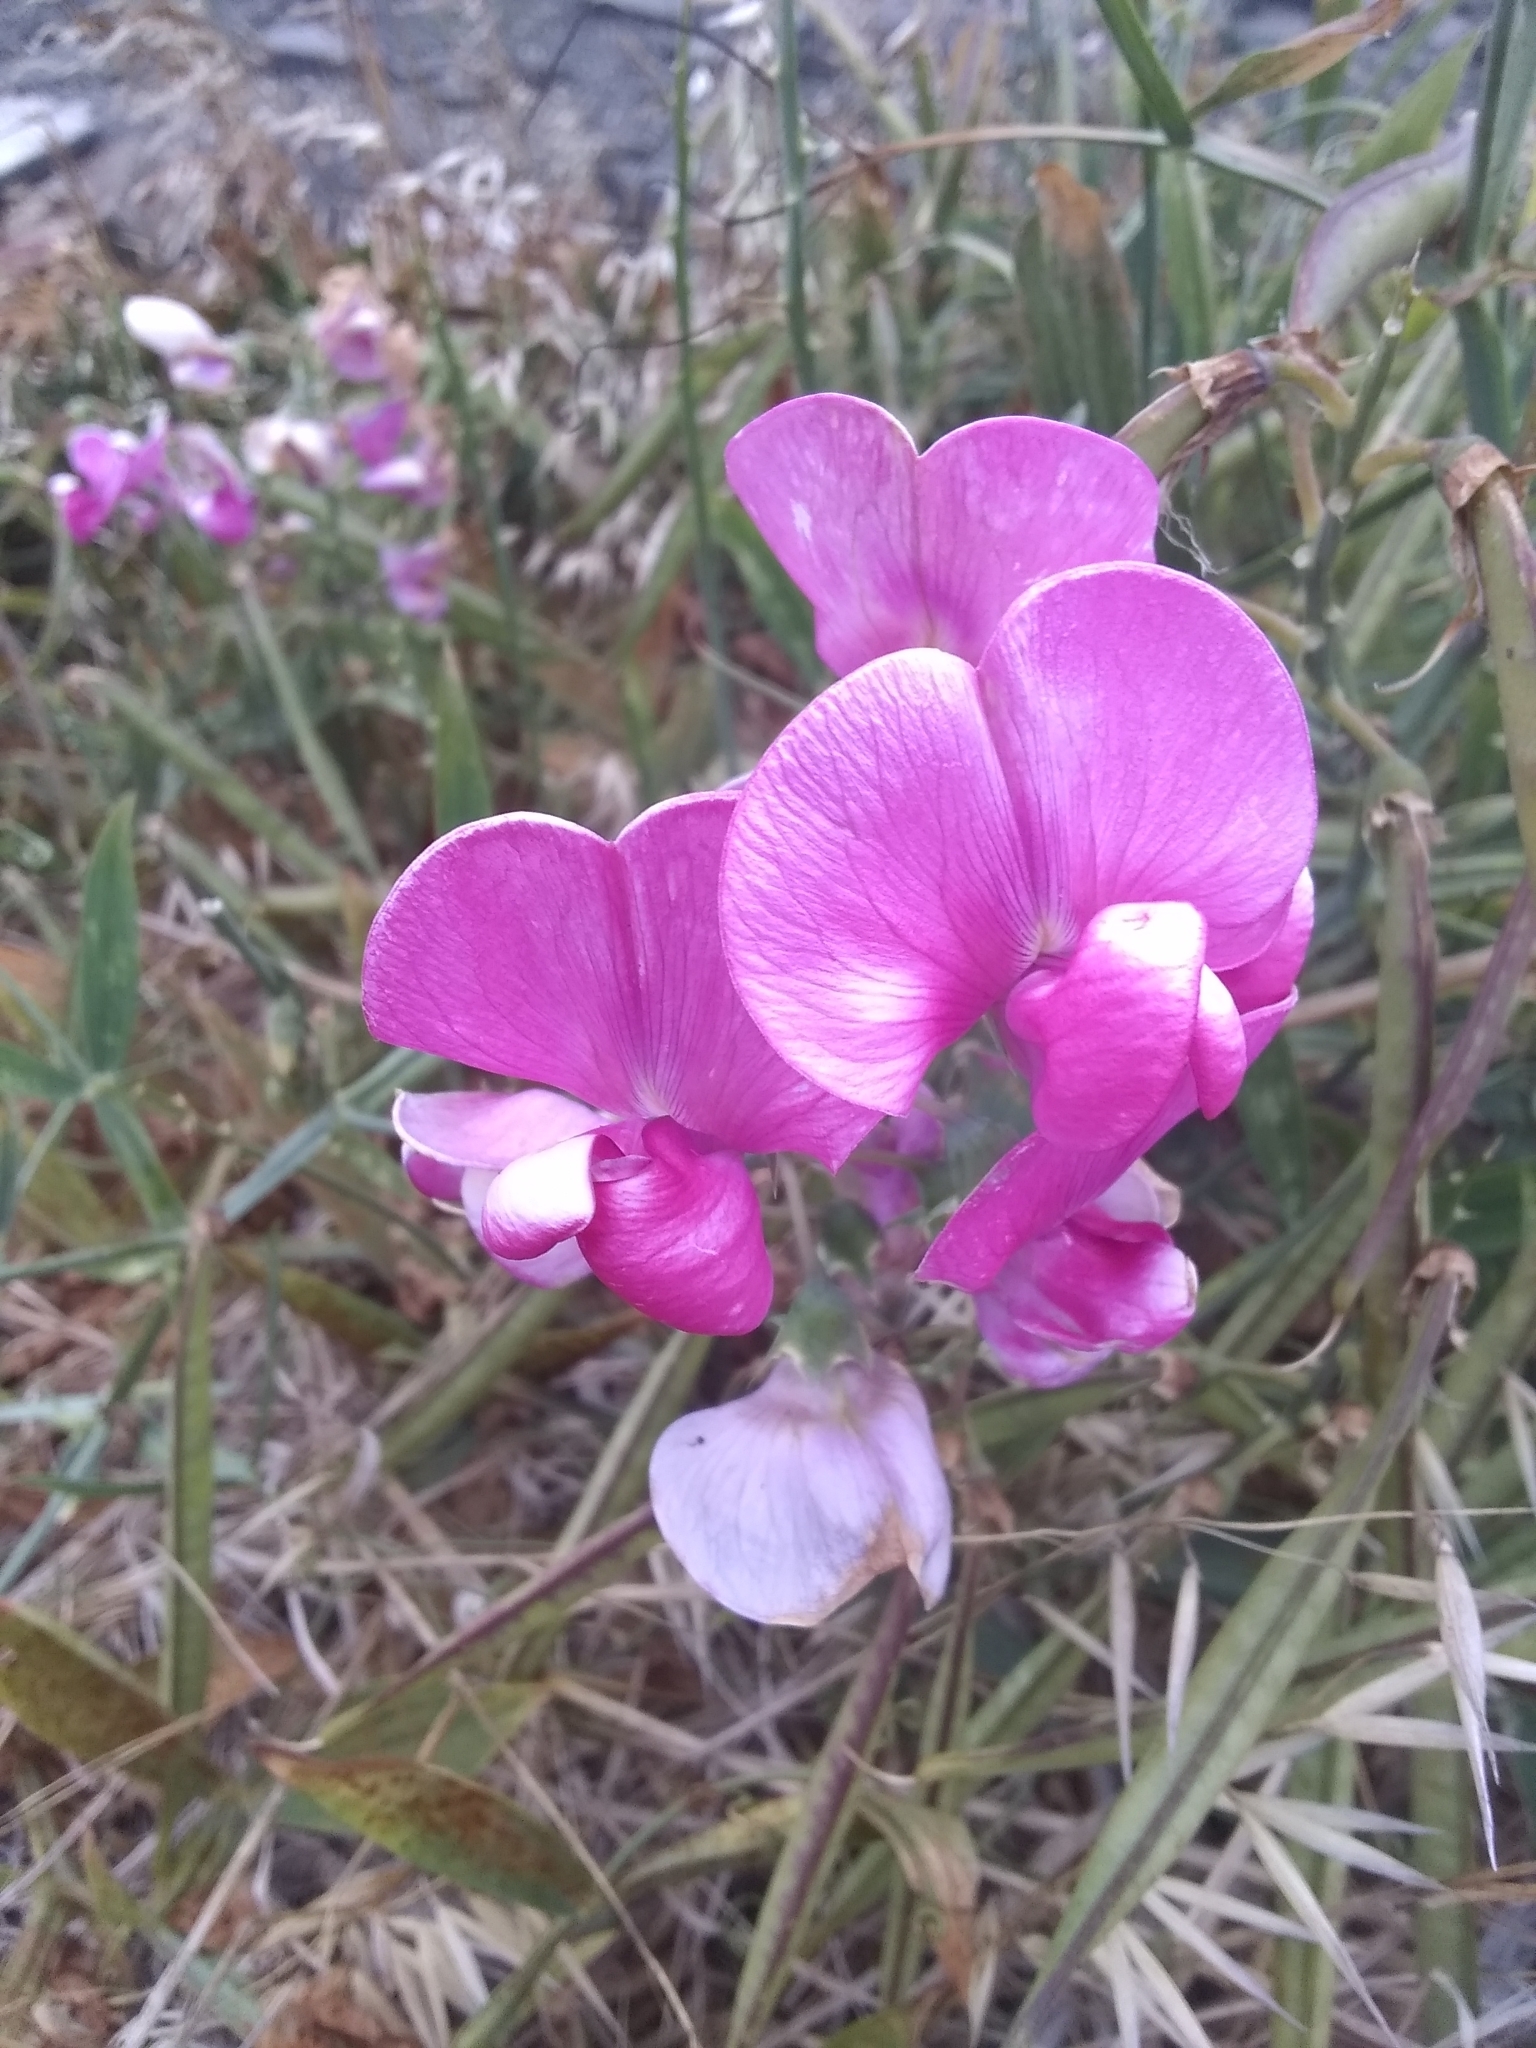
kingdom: Plantae
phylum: Tracheophyta
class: Magnoliopsida
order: Fabales
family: Fabaceae
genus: Lathyrus
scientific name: Lathyrus latifolius
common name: Perennial pea
